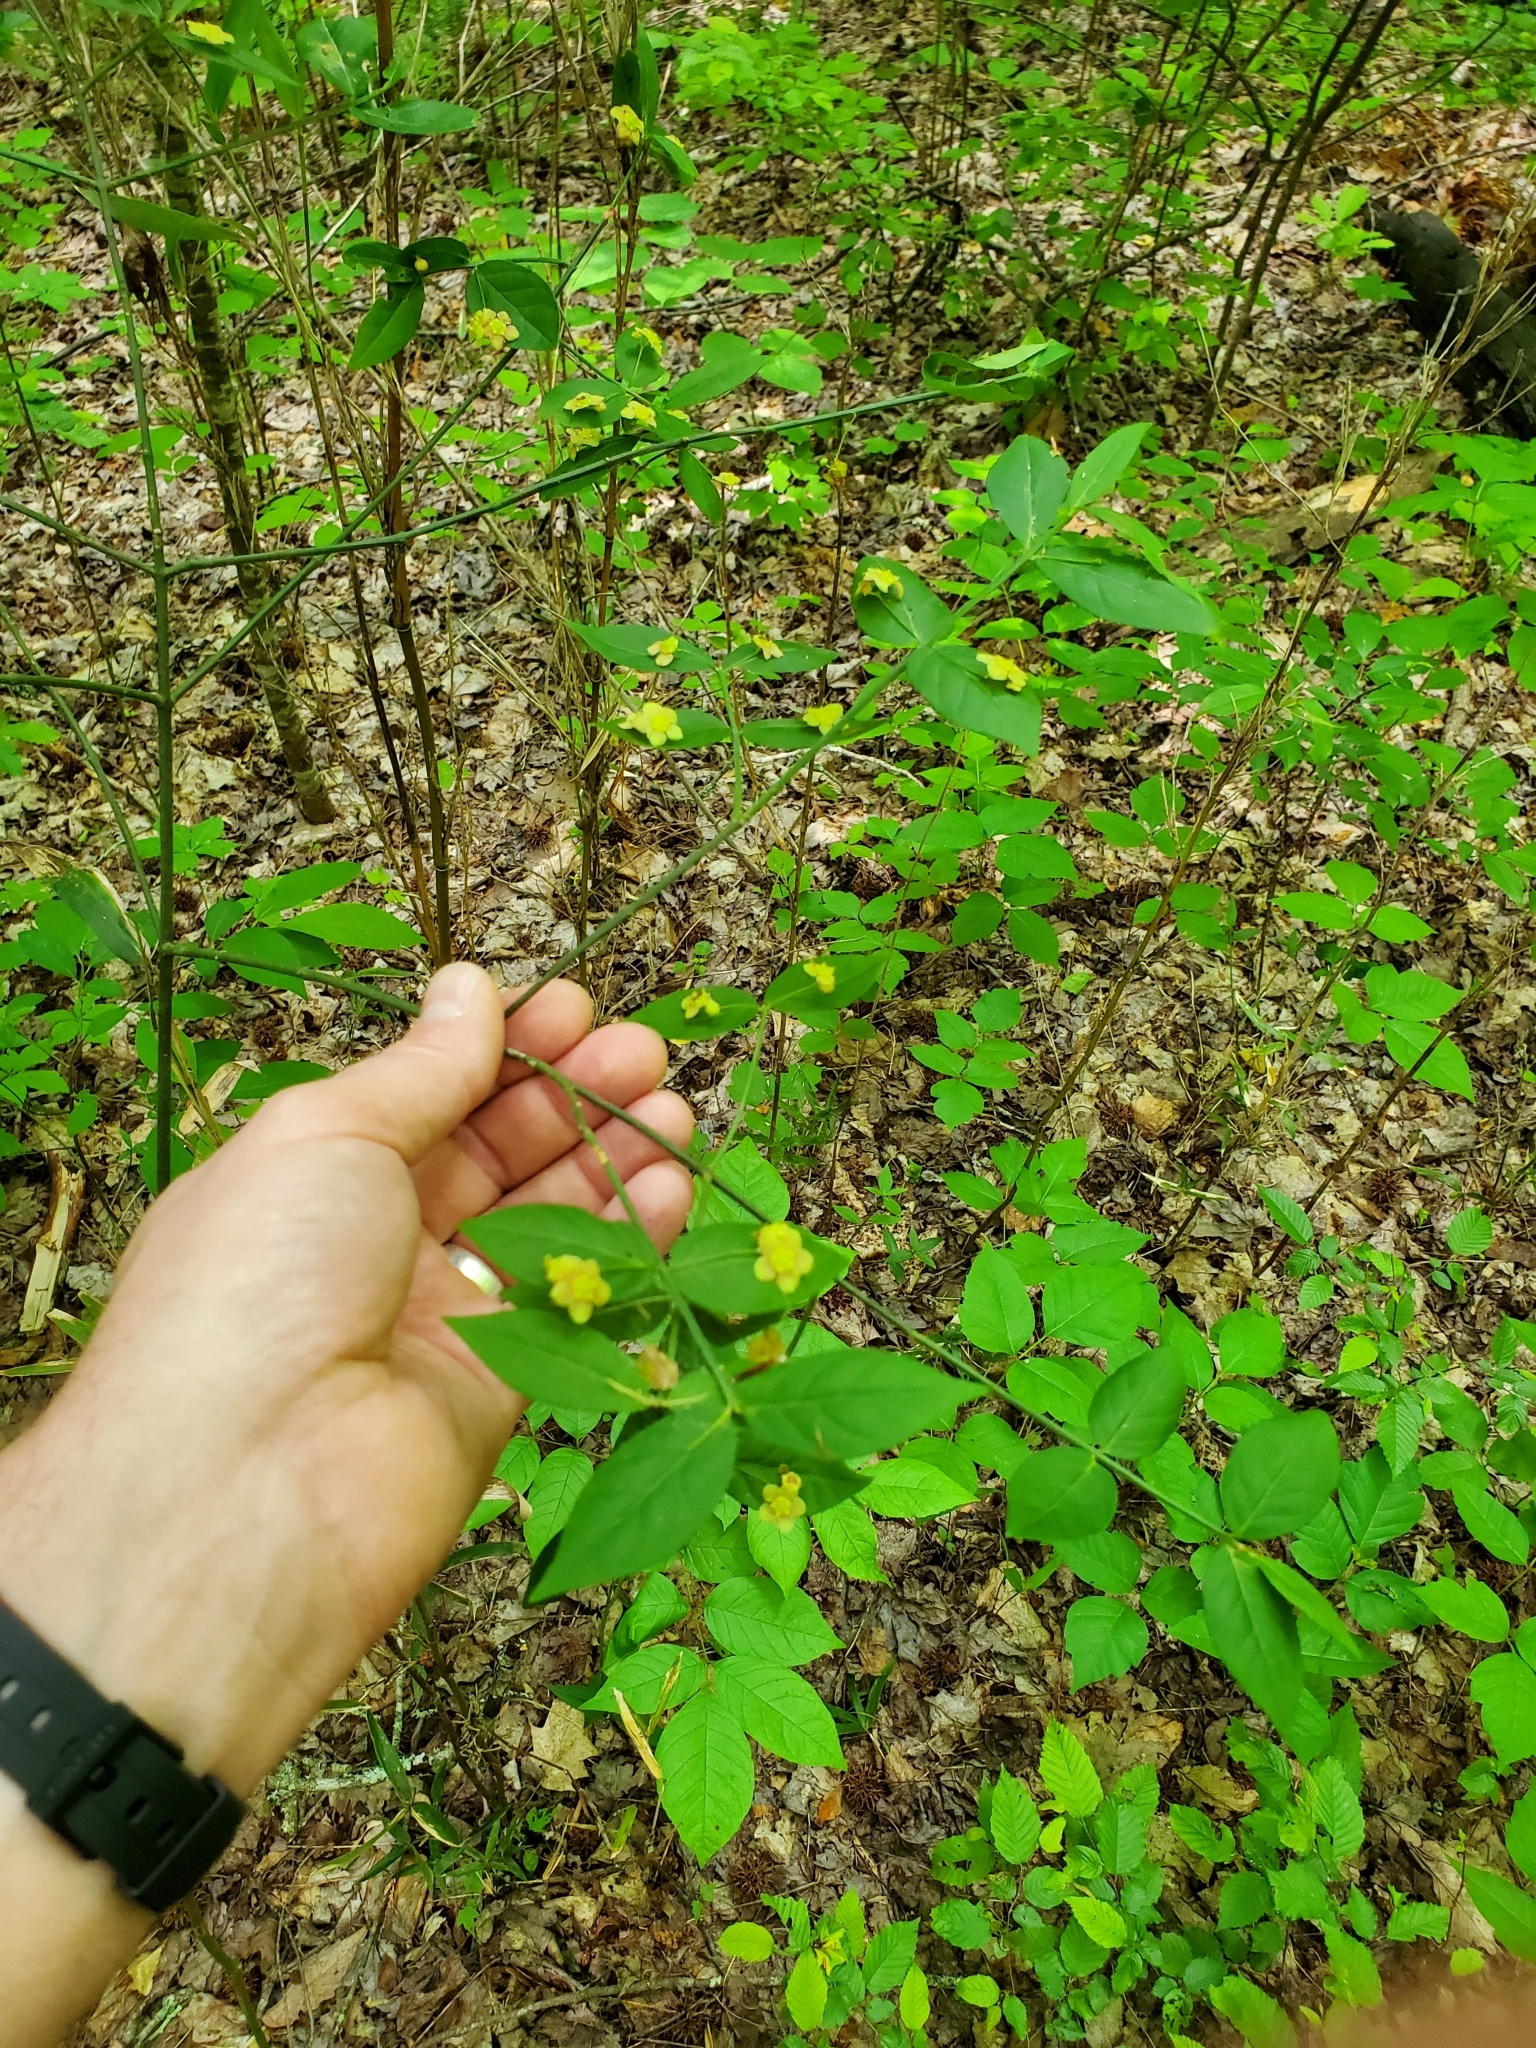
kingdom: Plantae
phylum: Tracheophyta
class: Magnoliopsida
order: Celastrales
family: Celastraceae
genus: Euonymus
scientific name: Euonymus americanus
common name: Bursting-heart
